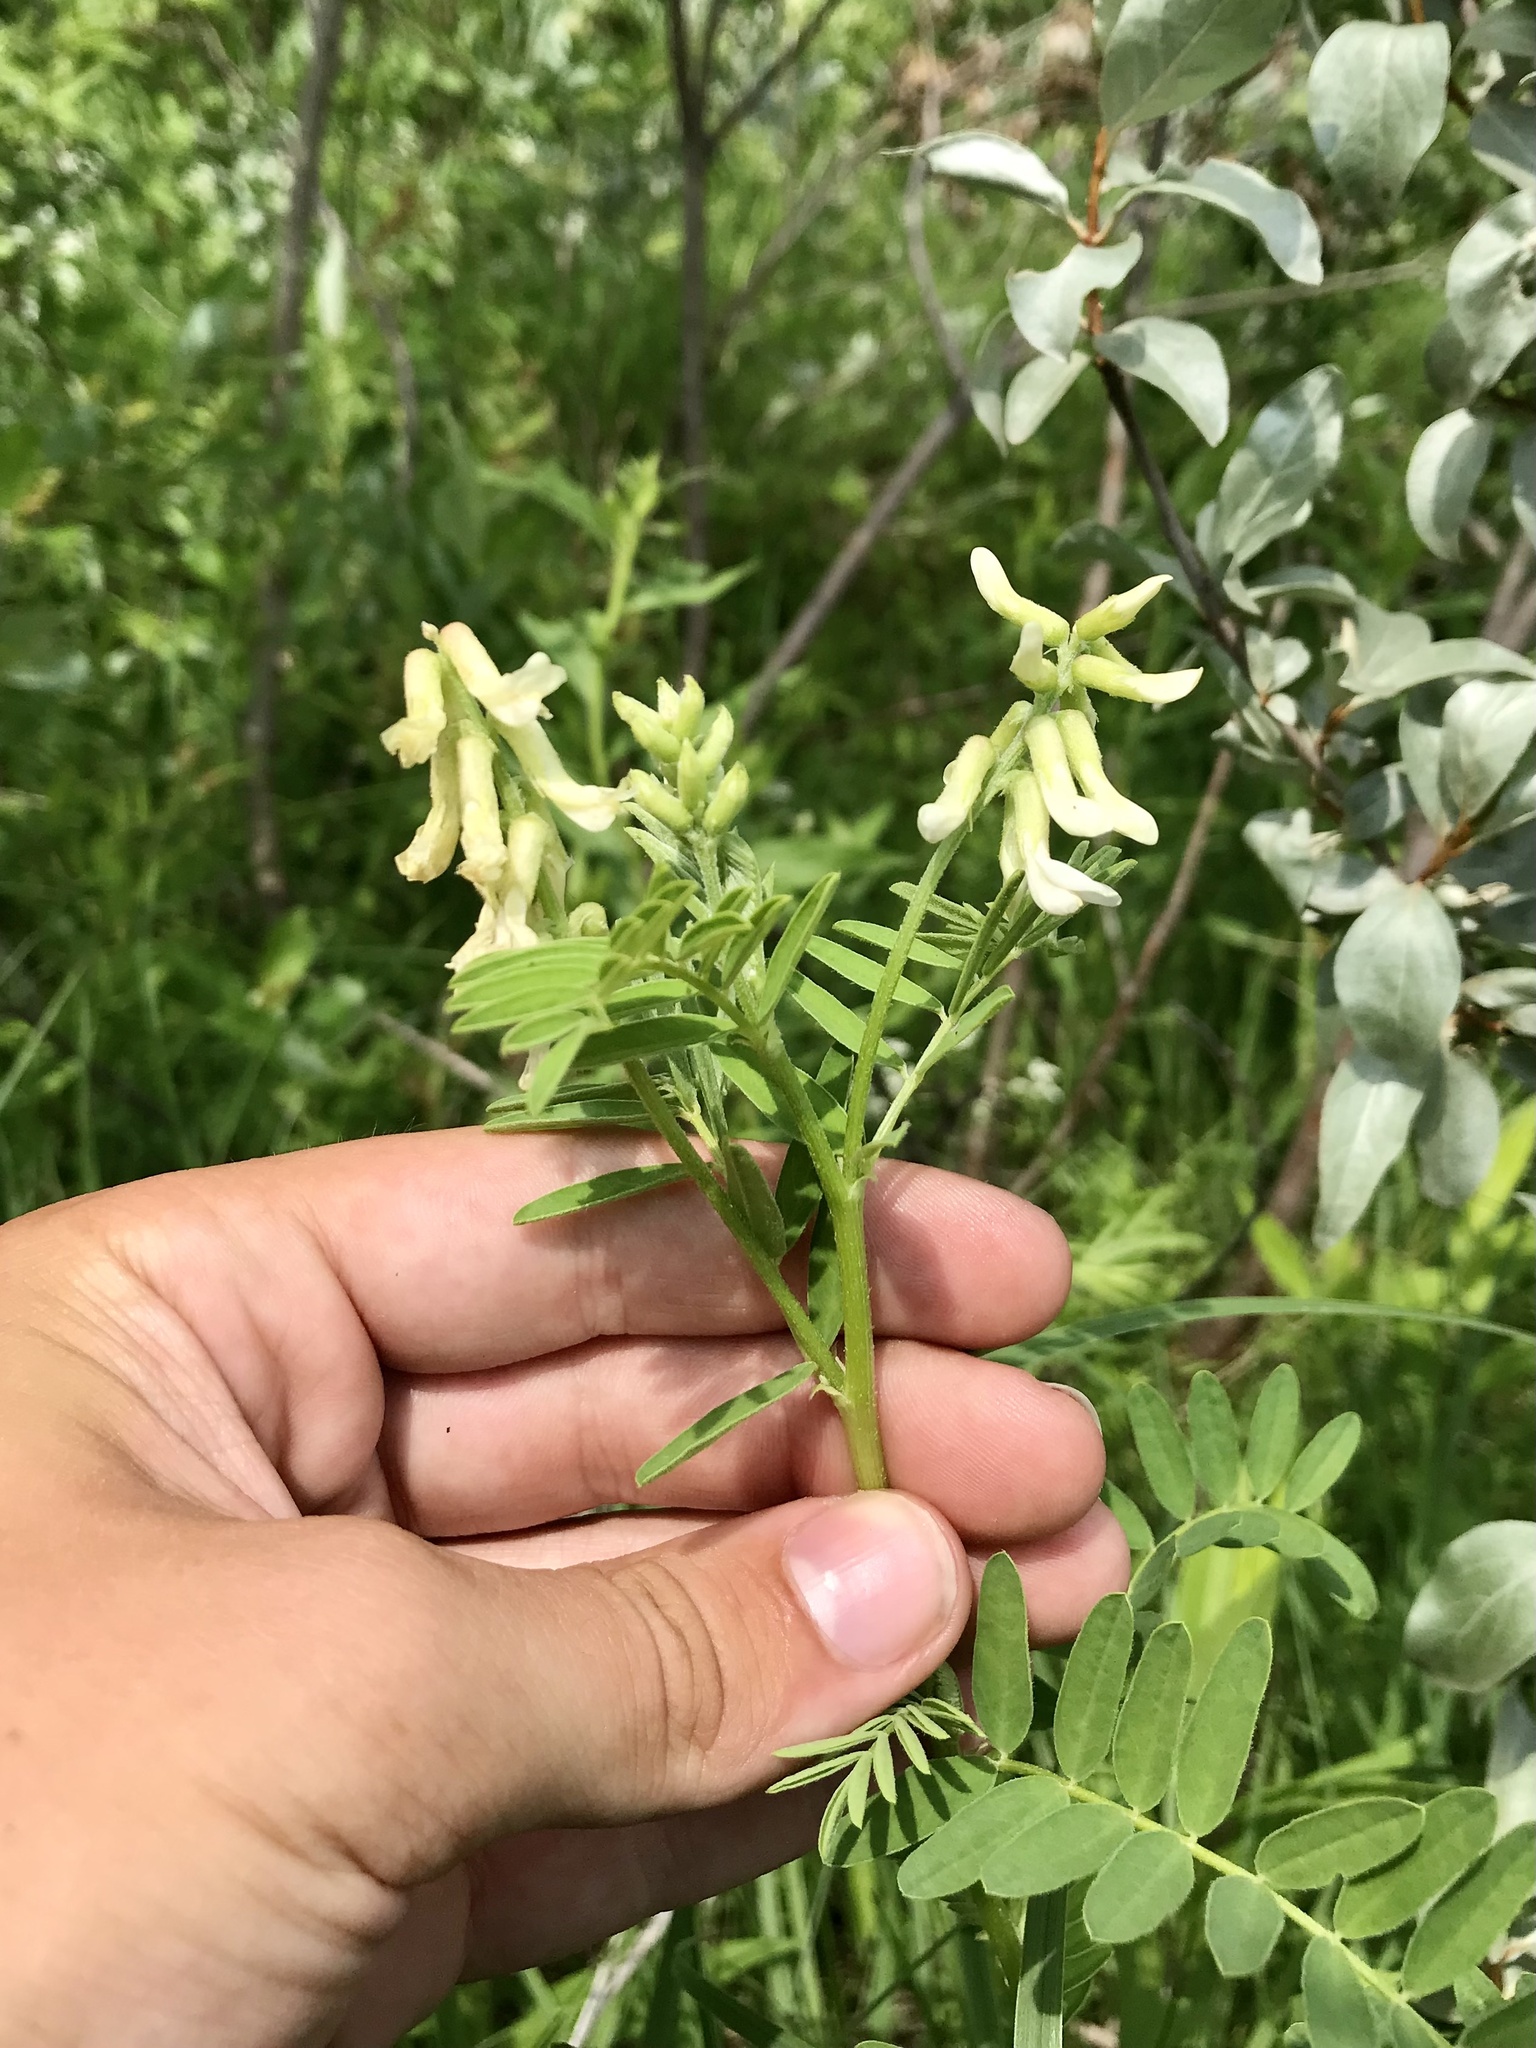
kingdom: Plantae
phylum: Tracheophyta
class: Magnoliopsida
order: Fabales
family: Fabaceae
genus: Astragalus
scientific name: Astragalus neglectus
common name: Cooper's milk-vetch
